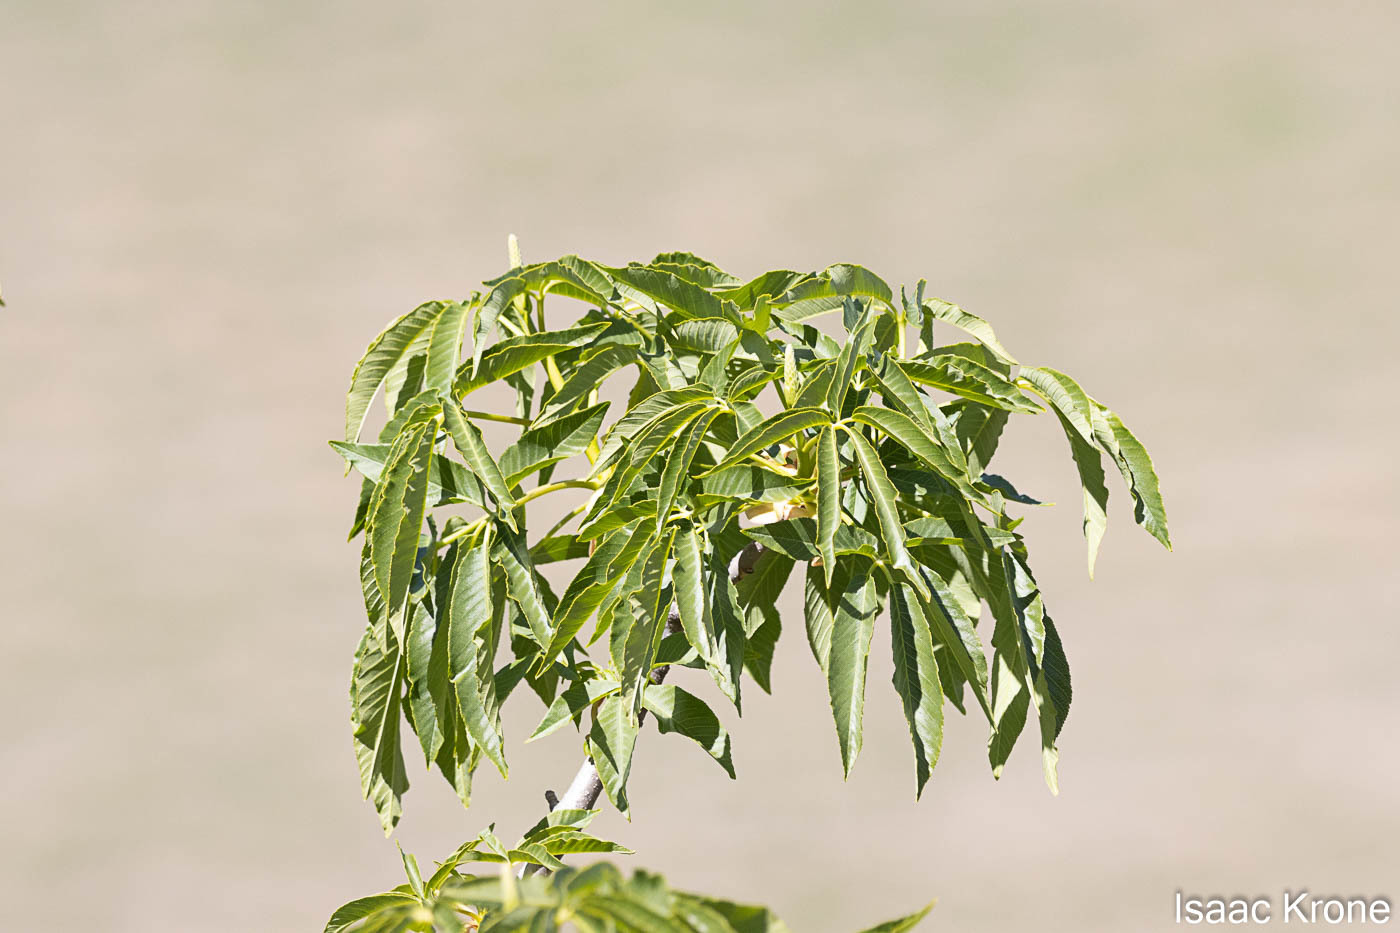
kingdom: Plantae
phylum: Tracheophyta
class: Magnoliopsida
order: Sapindales
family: Sapindaceae
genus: Aesculus
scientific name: Aesculus californica
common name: California buckeye
